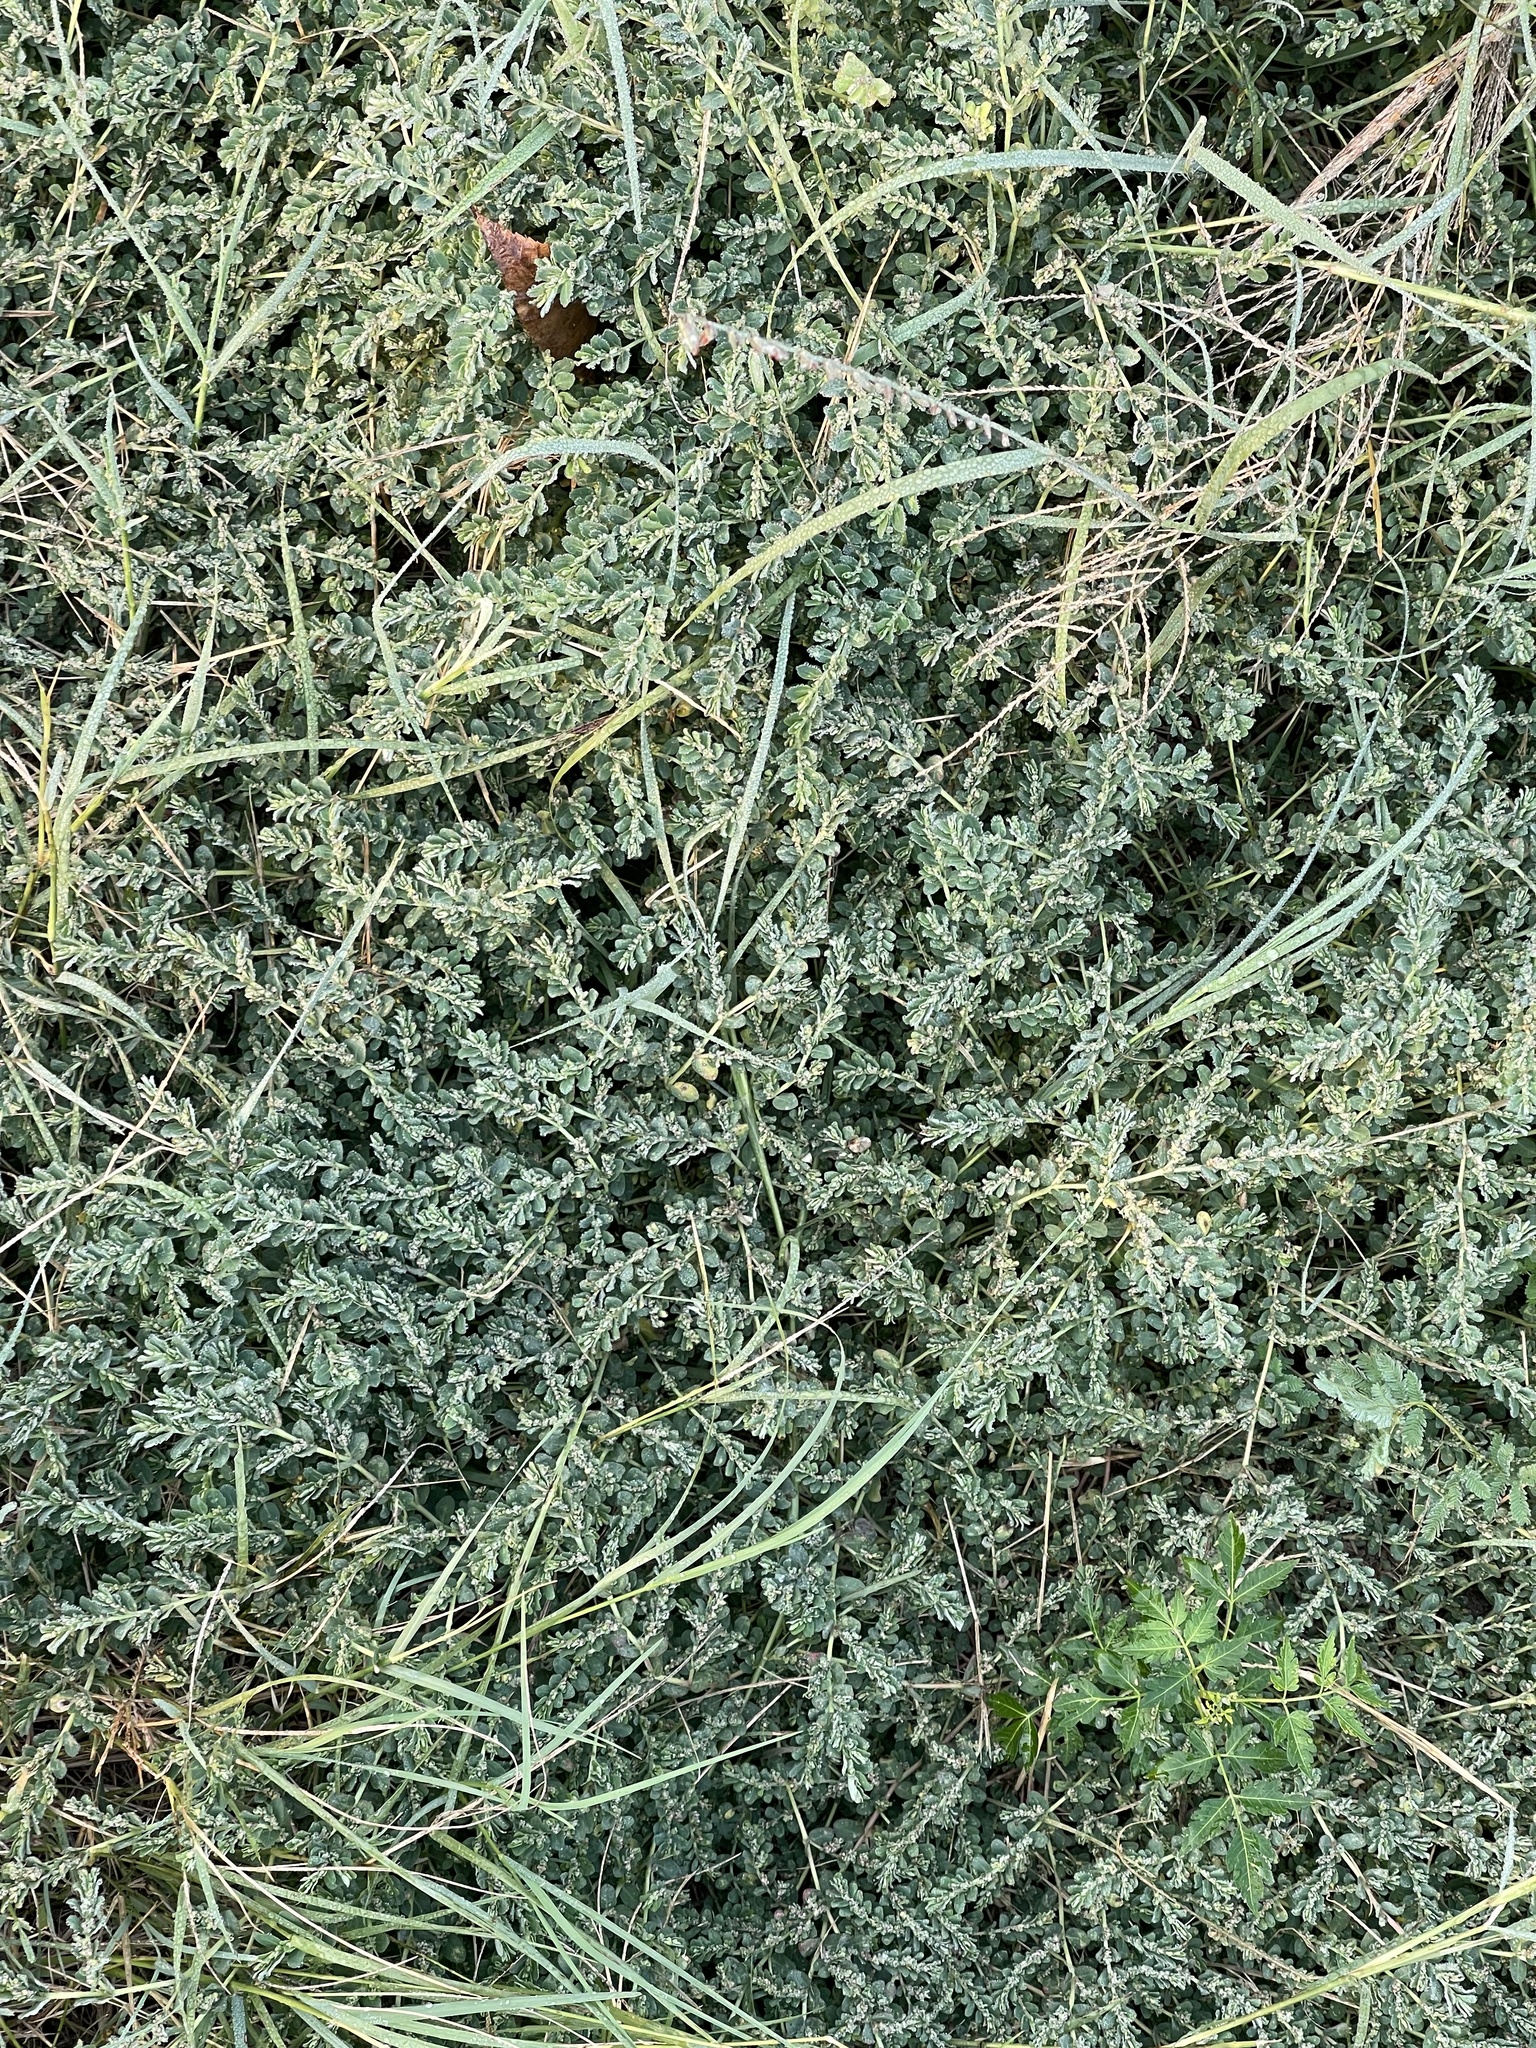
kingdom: Plantae
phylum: Tracheophyta
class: Magnoliopsida
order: Malpighiales
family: Euphorbiaceae
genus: Euphorbia
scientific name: Euphorbia prostrata
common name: Prostrate sandmat
